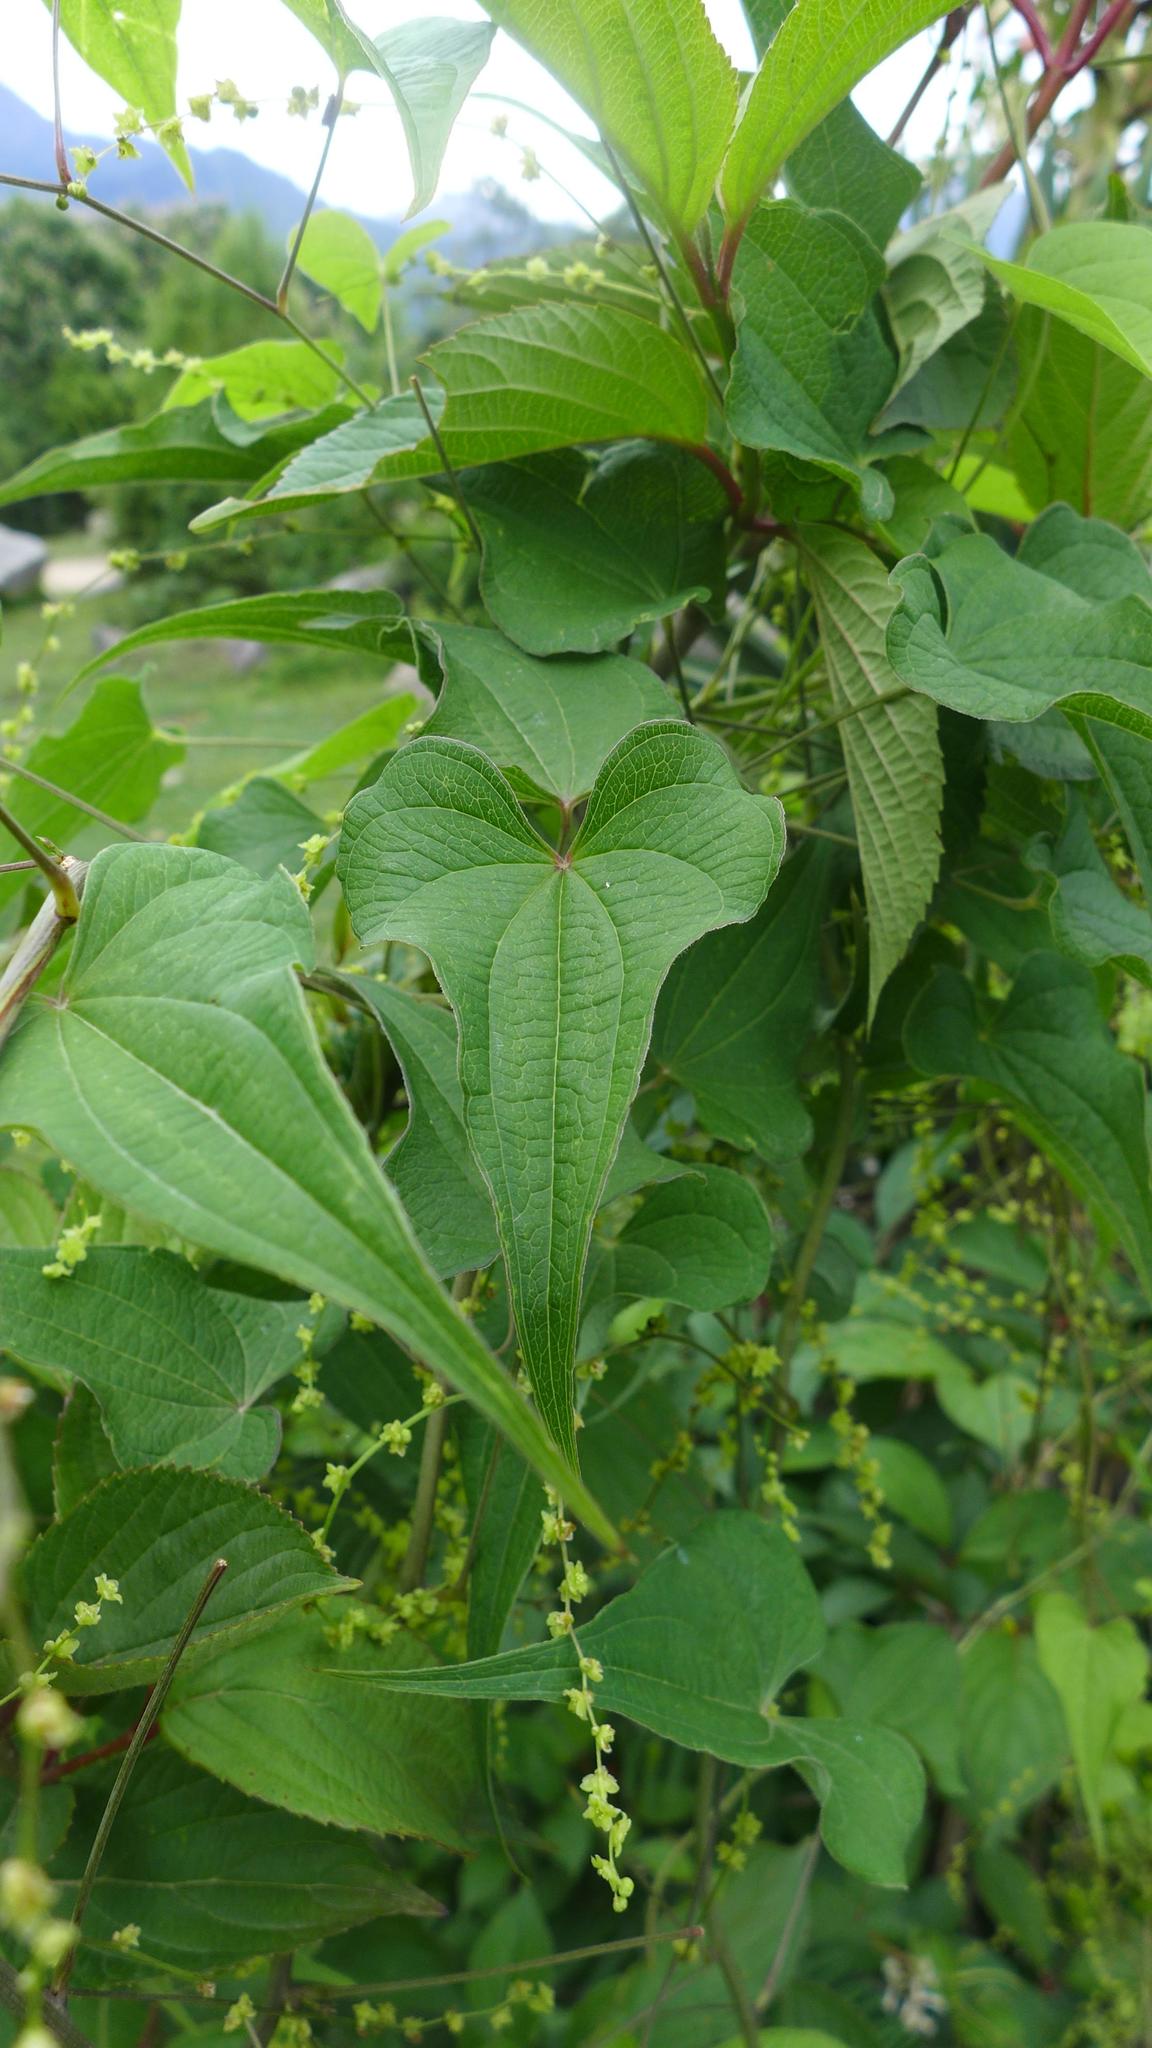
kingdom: Plantae
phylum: Tracheophyta
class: Liliopsida
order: Dioscoreales
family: Dioscoreaceae
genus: Dioscorea
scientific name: Dioscorea deltoidea
